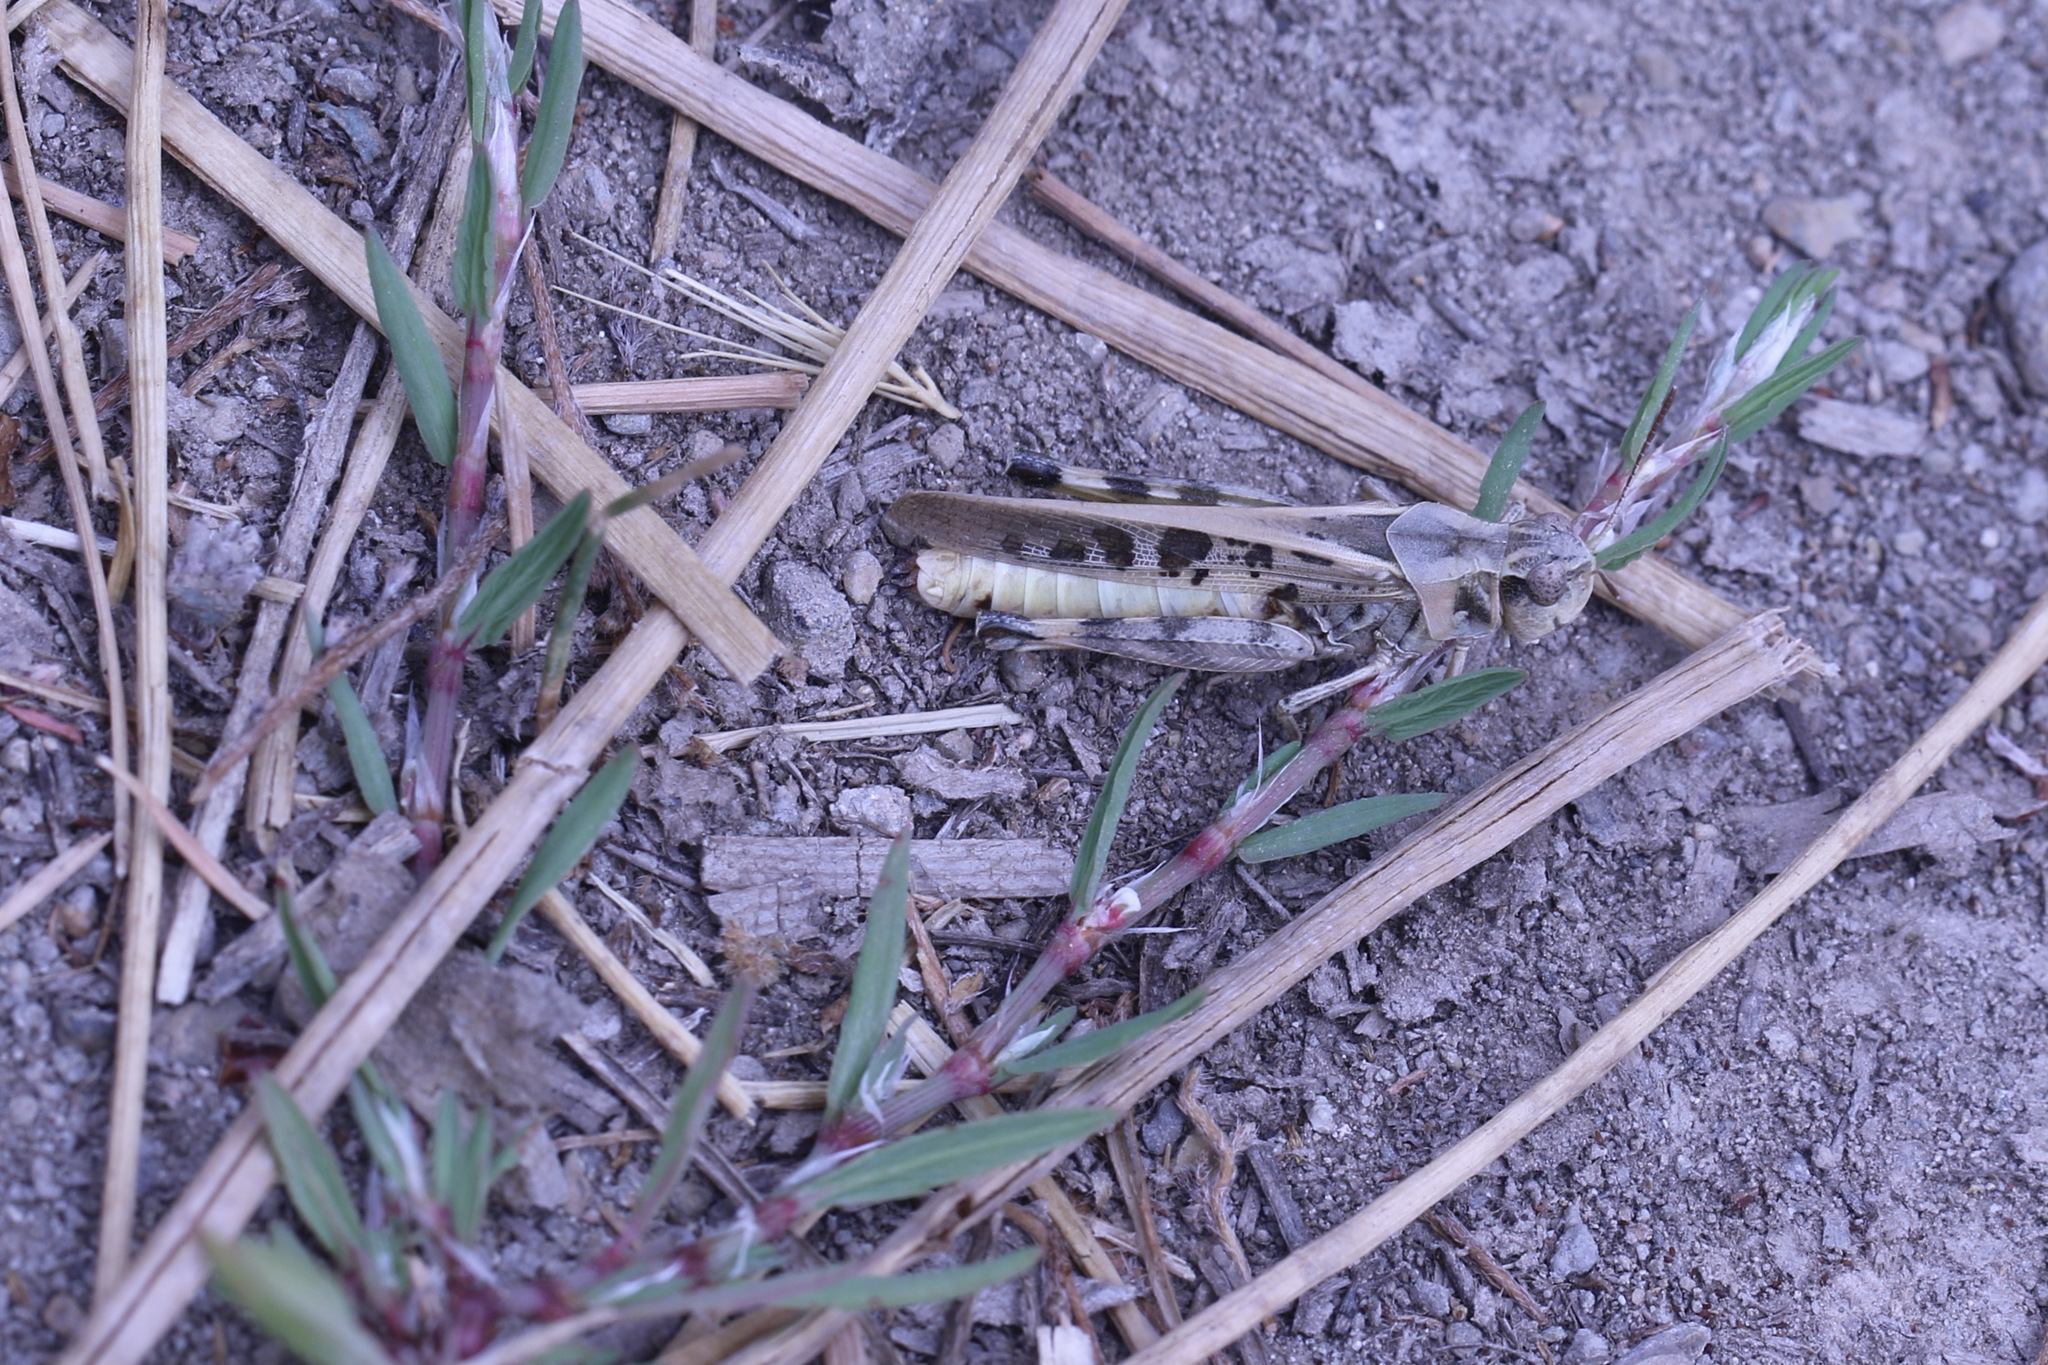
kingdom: Animalia
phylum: Arthropoda
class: Insecta
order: Orthoptera
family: Acrididae
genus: Camnula
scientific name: Camnula pellucida
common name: Clear-winged grasshopper
